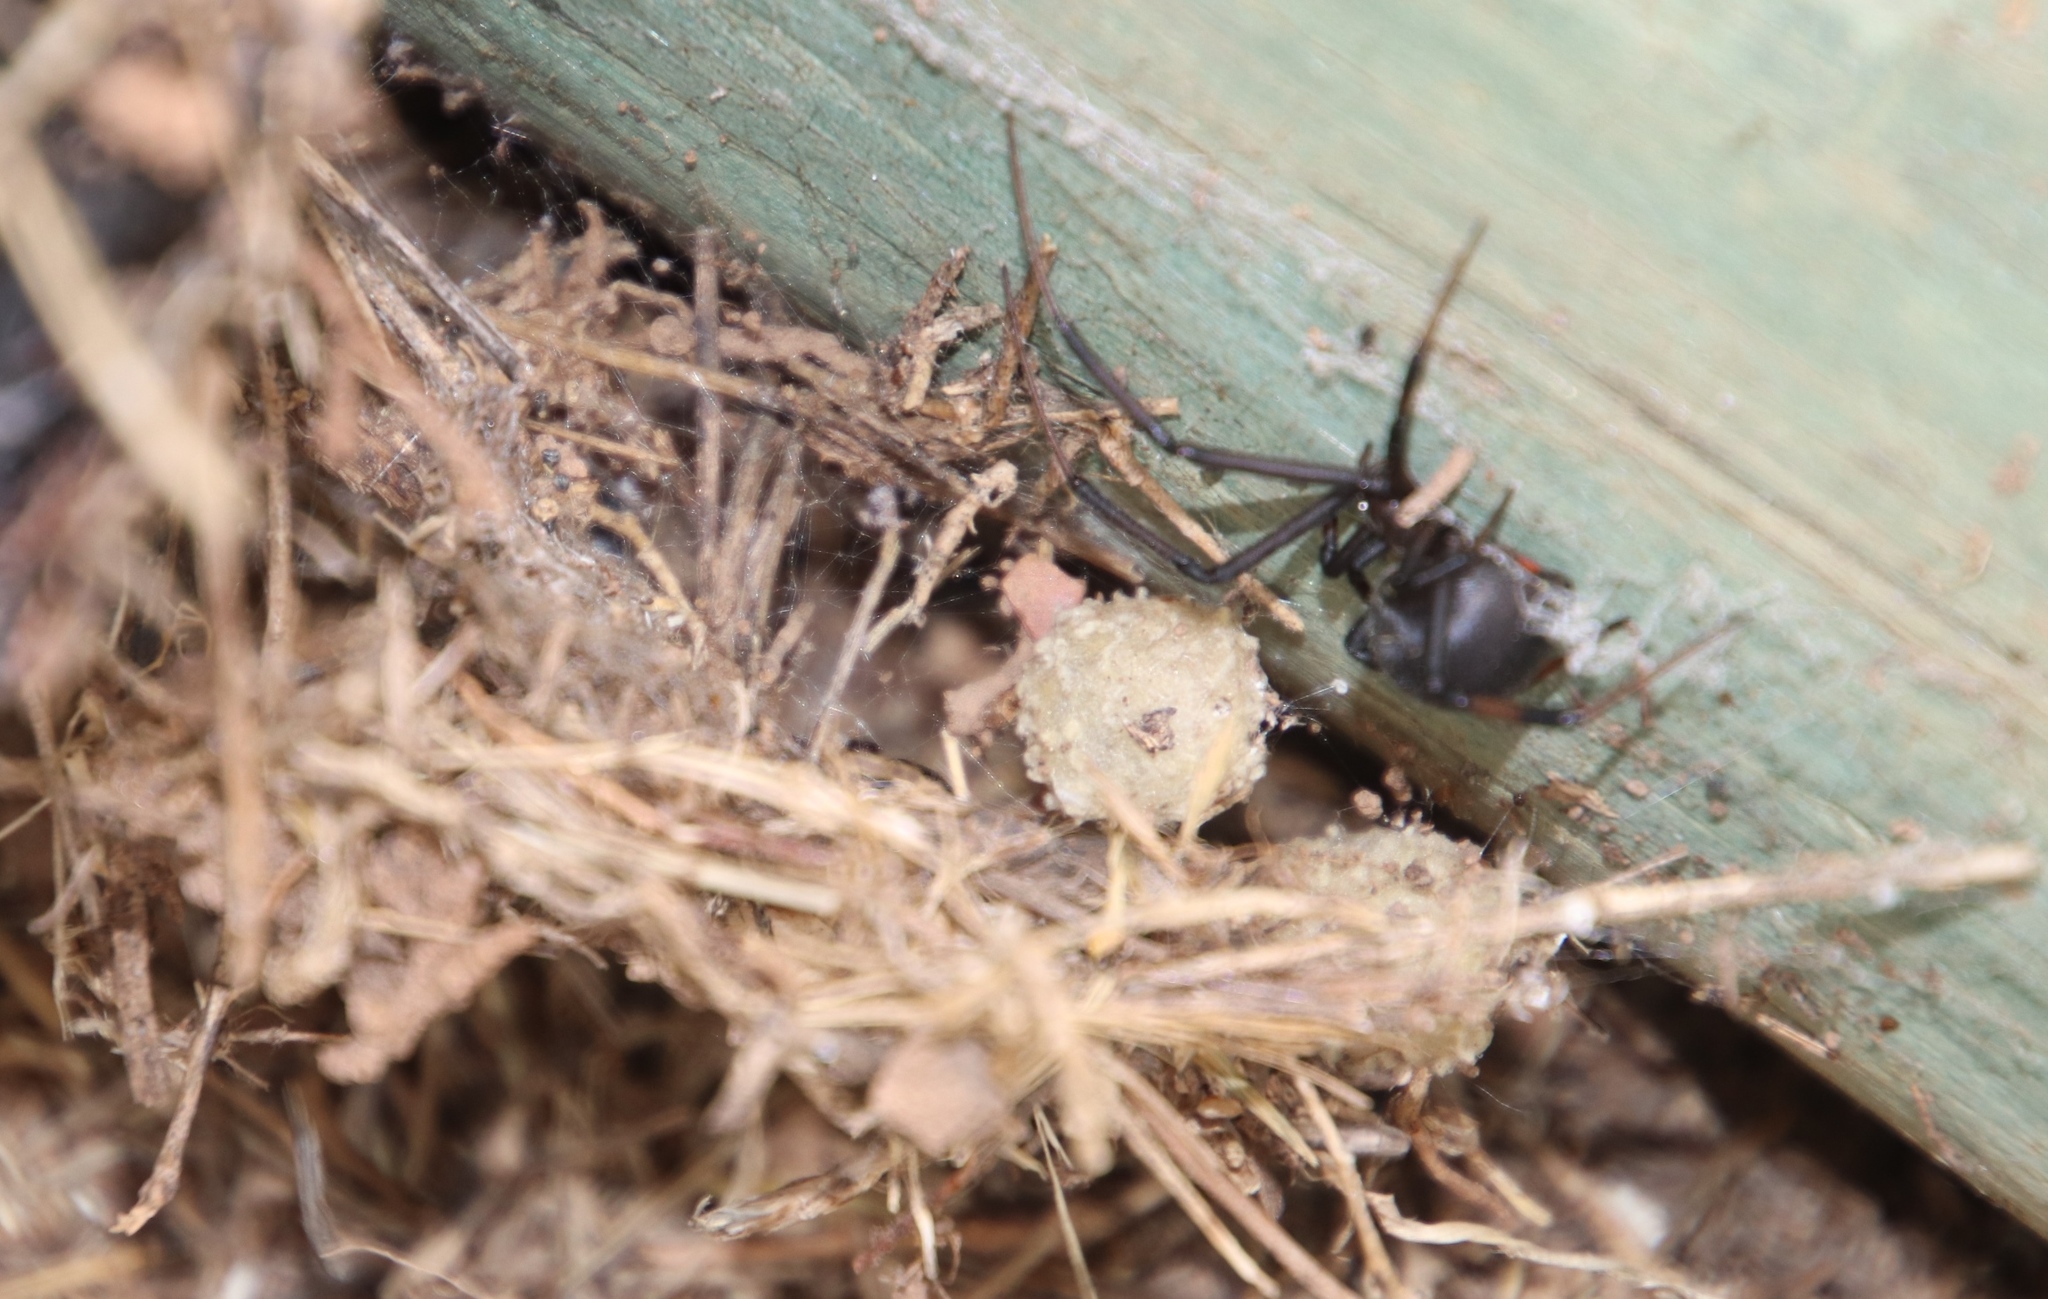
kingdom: Animalia
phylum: Arthropoda
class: Arachnida
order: Araneae
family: Theridiidae
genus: Latrodectus
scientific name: Latrodectus geometricus
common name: Brown widow spider
